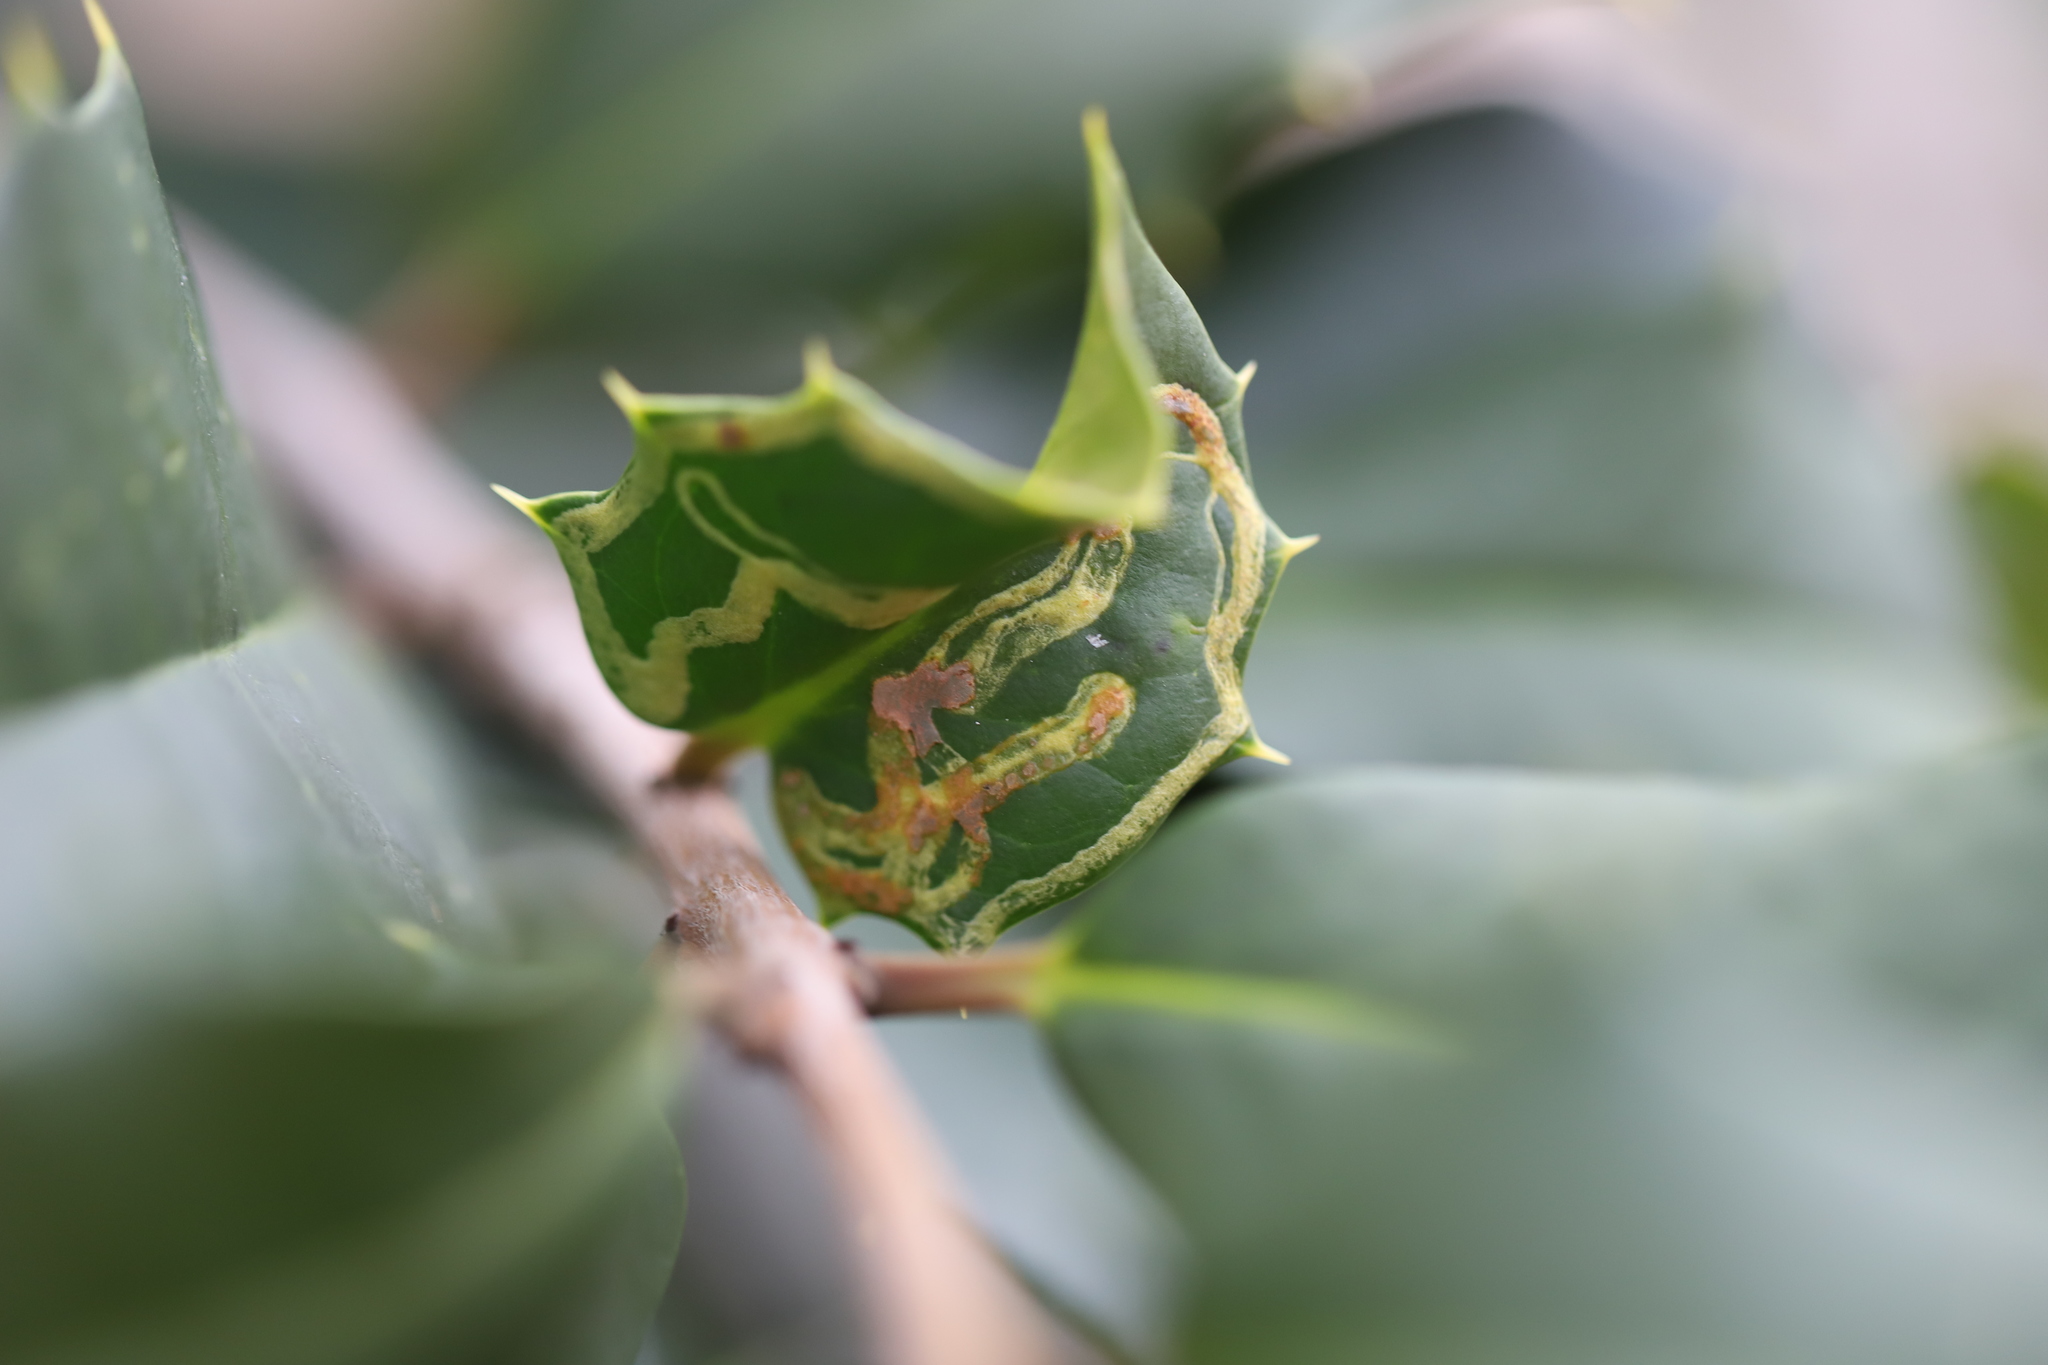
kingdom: Animalia
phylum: Arthropoda
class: Insecta
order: Diptera
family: Agromyzidae
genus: Phytomyza
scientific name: Phytomyza opacae
